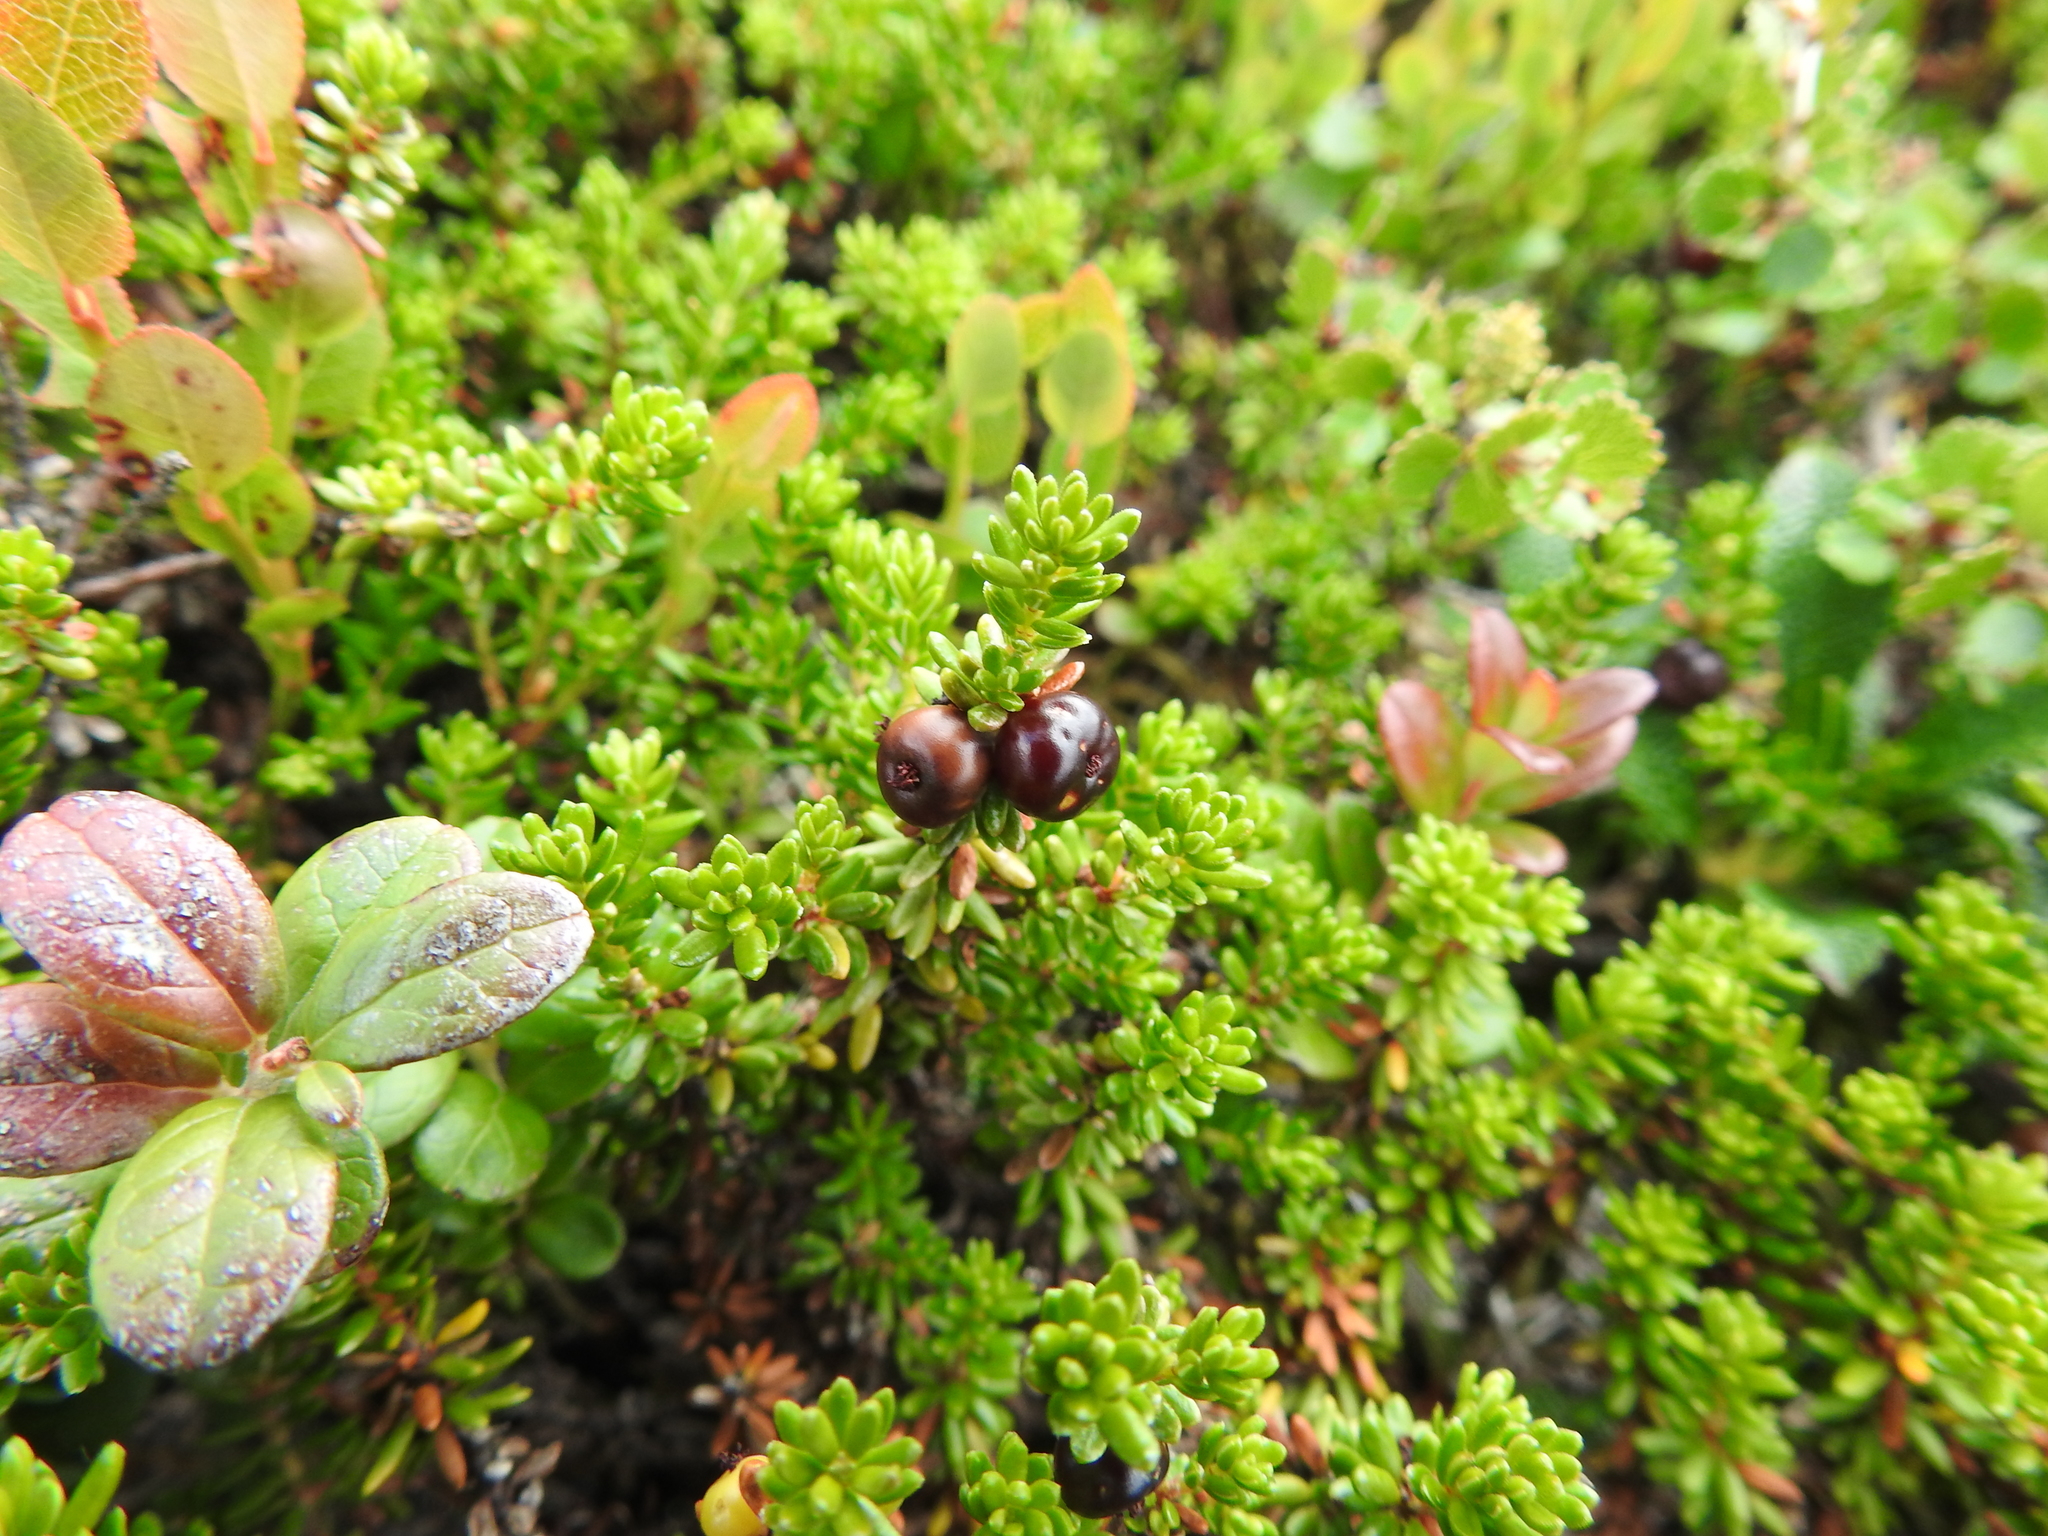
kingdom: Plantae
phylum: Tracheophyta
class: Magnoliopsida
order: Ericales
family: Ericaceae
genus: Empetrum
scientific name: Empetrum nigrum
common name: Black crowberry
